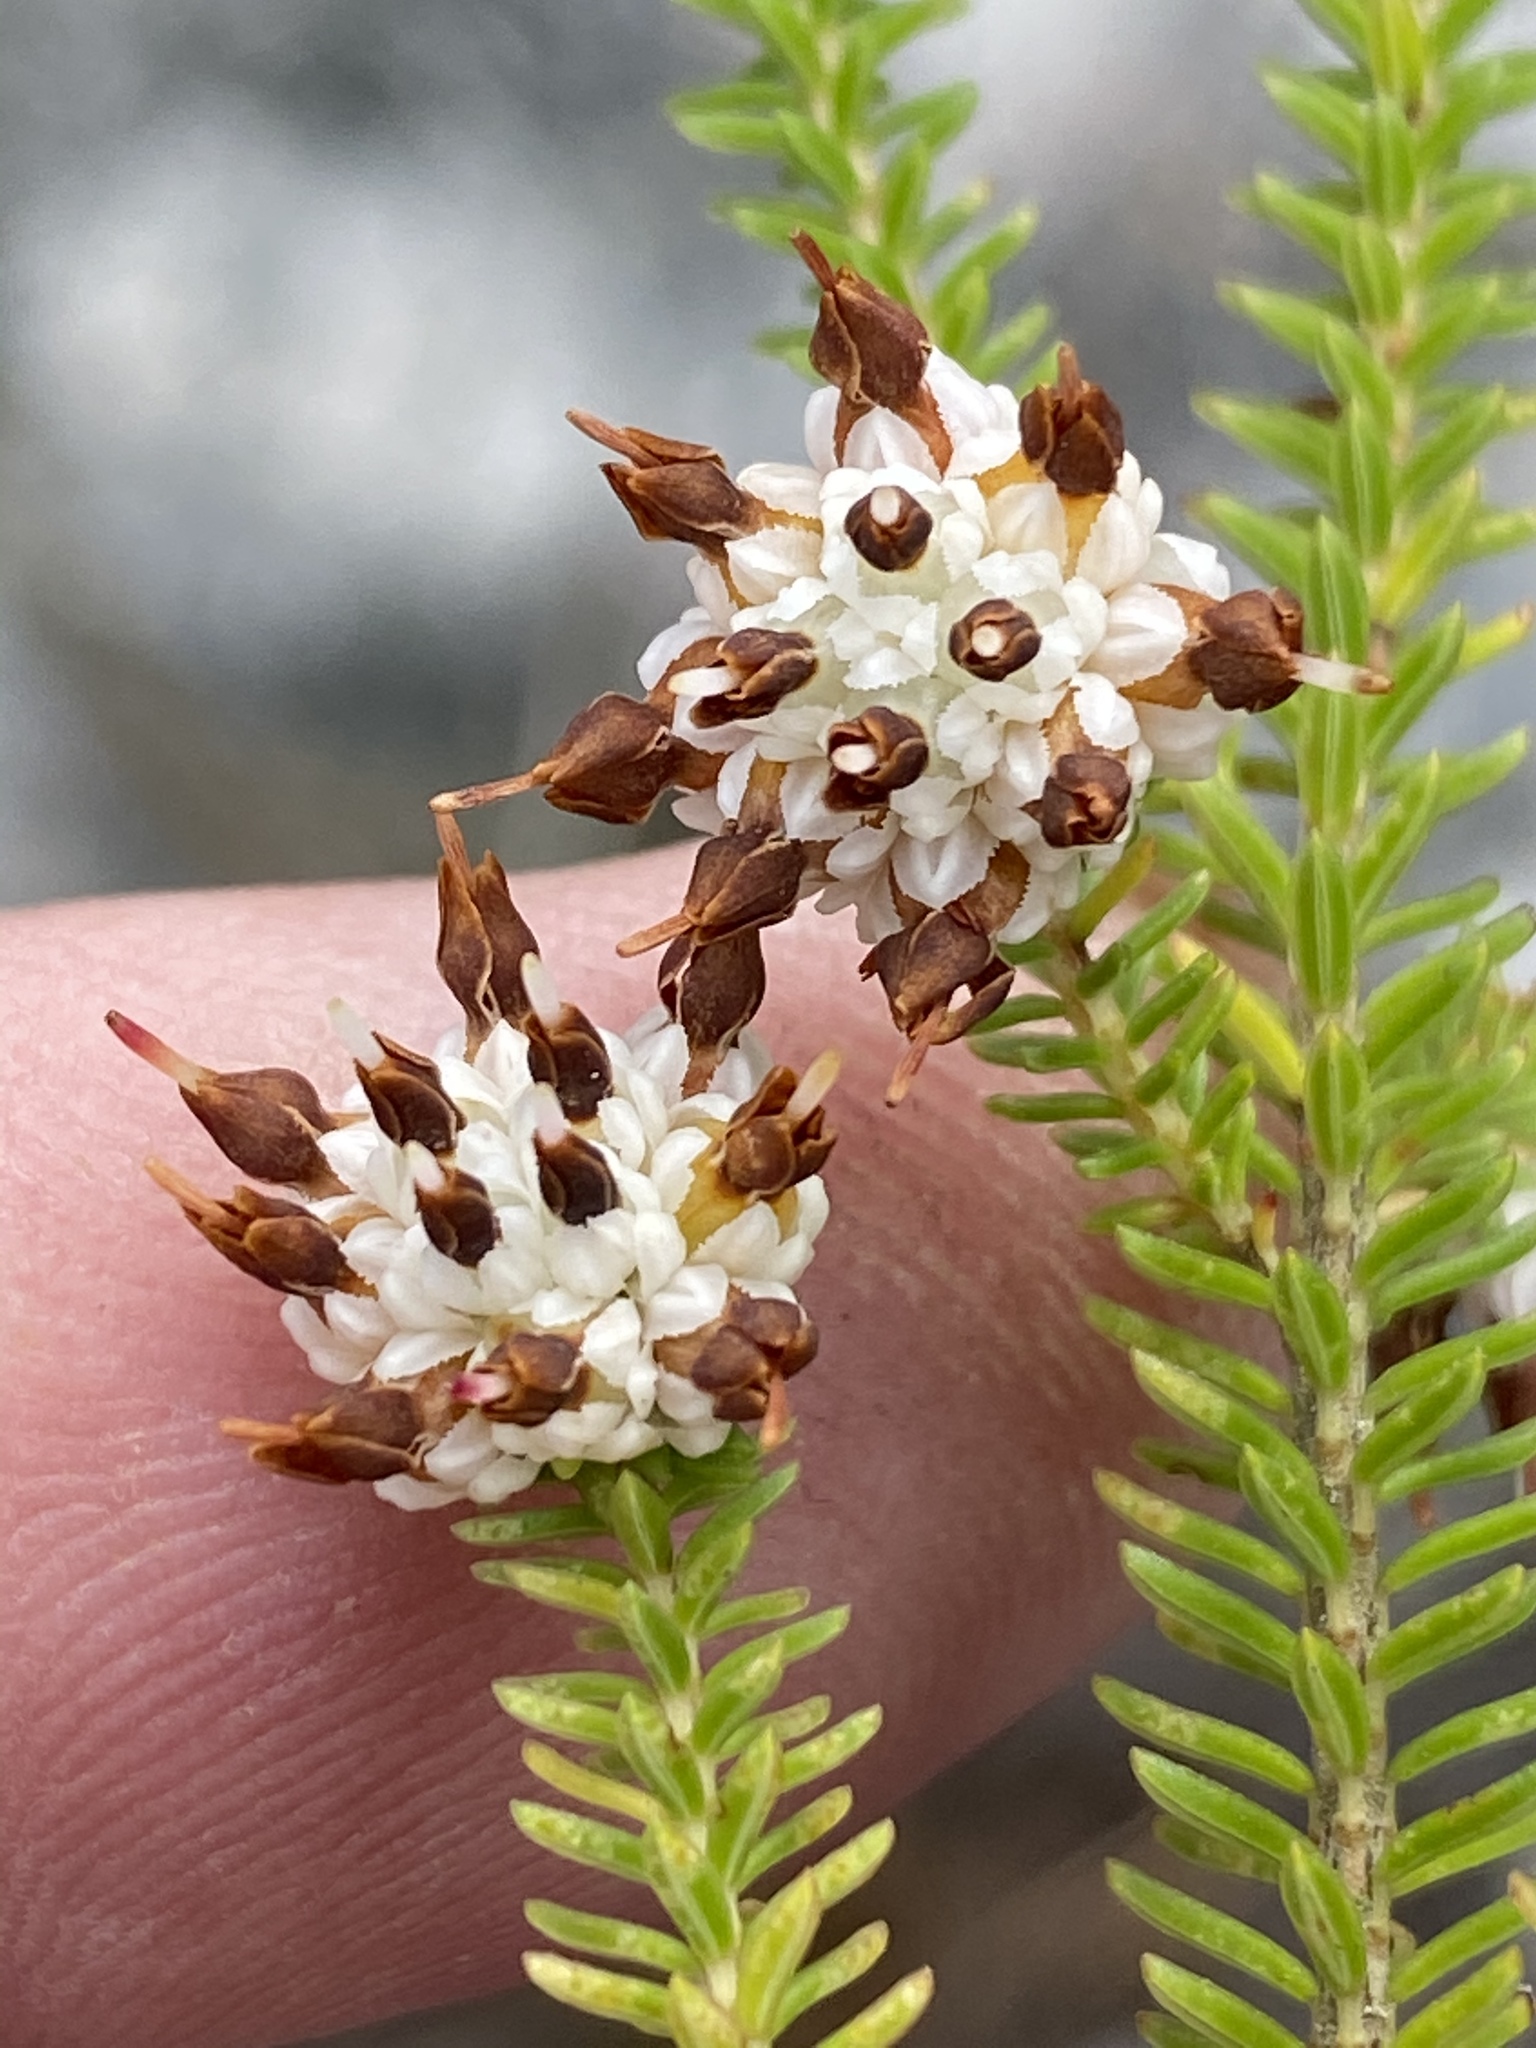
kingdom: Plantae
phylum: Tracheophyta
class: Magnoliopsida
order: Ericales
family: Ericaceae
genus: Erica
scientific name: Erica cumuliflora
